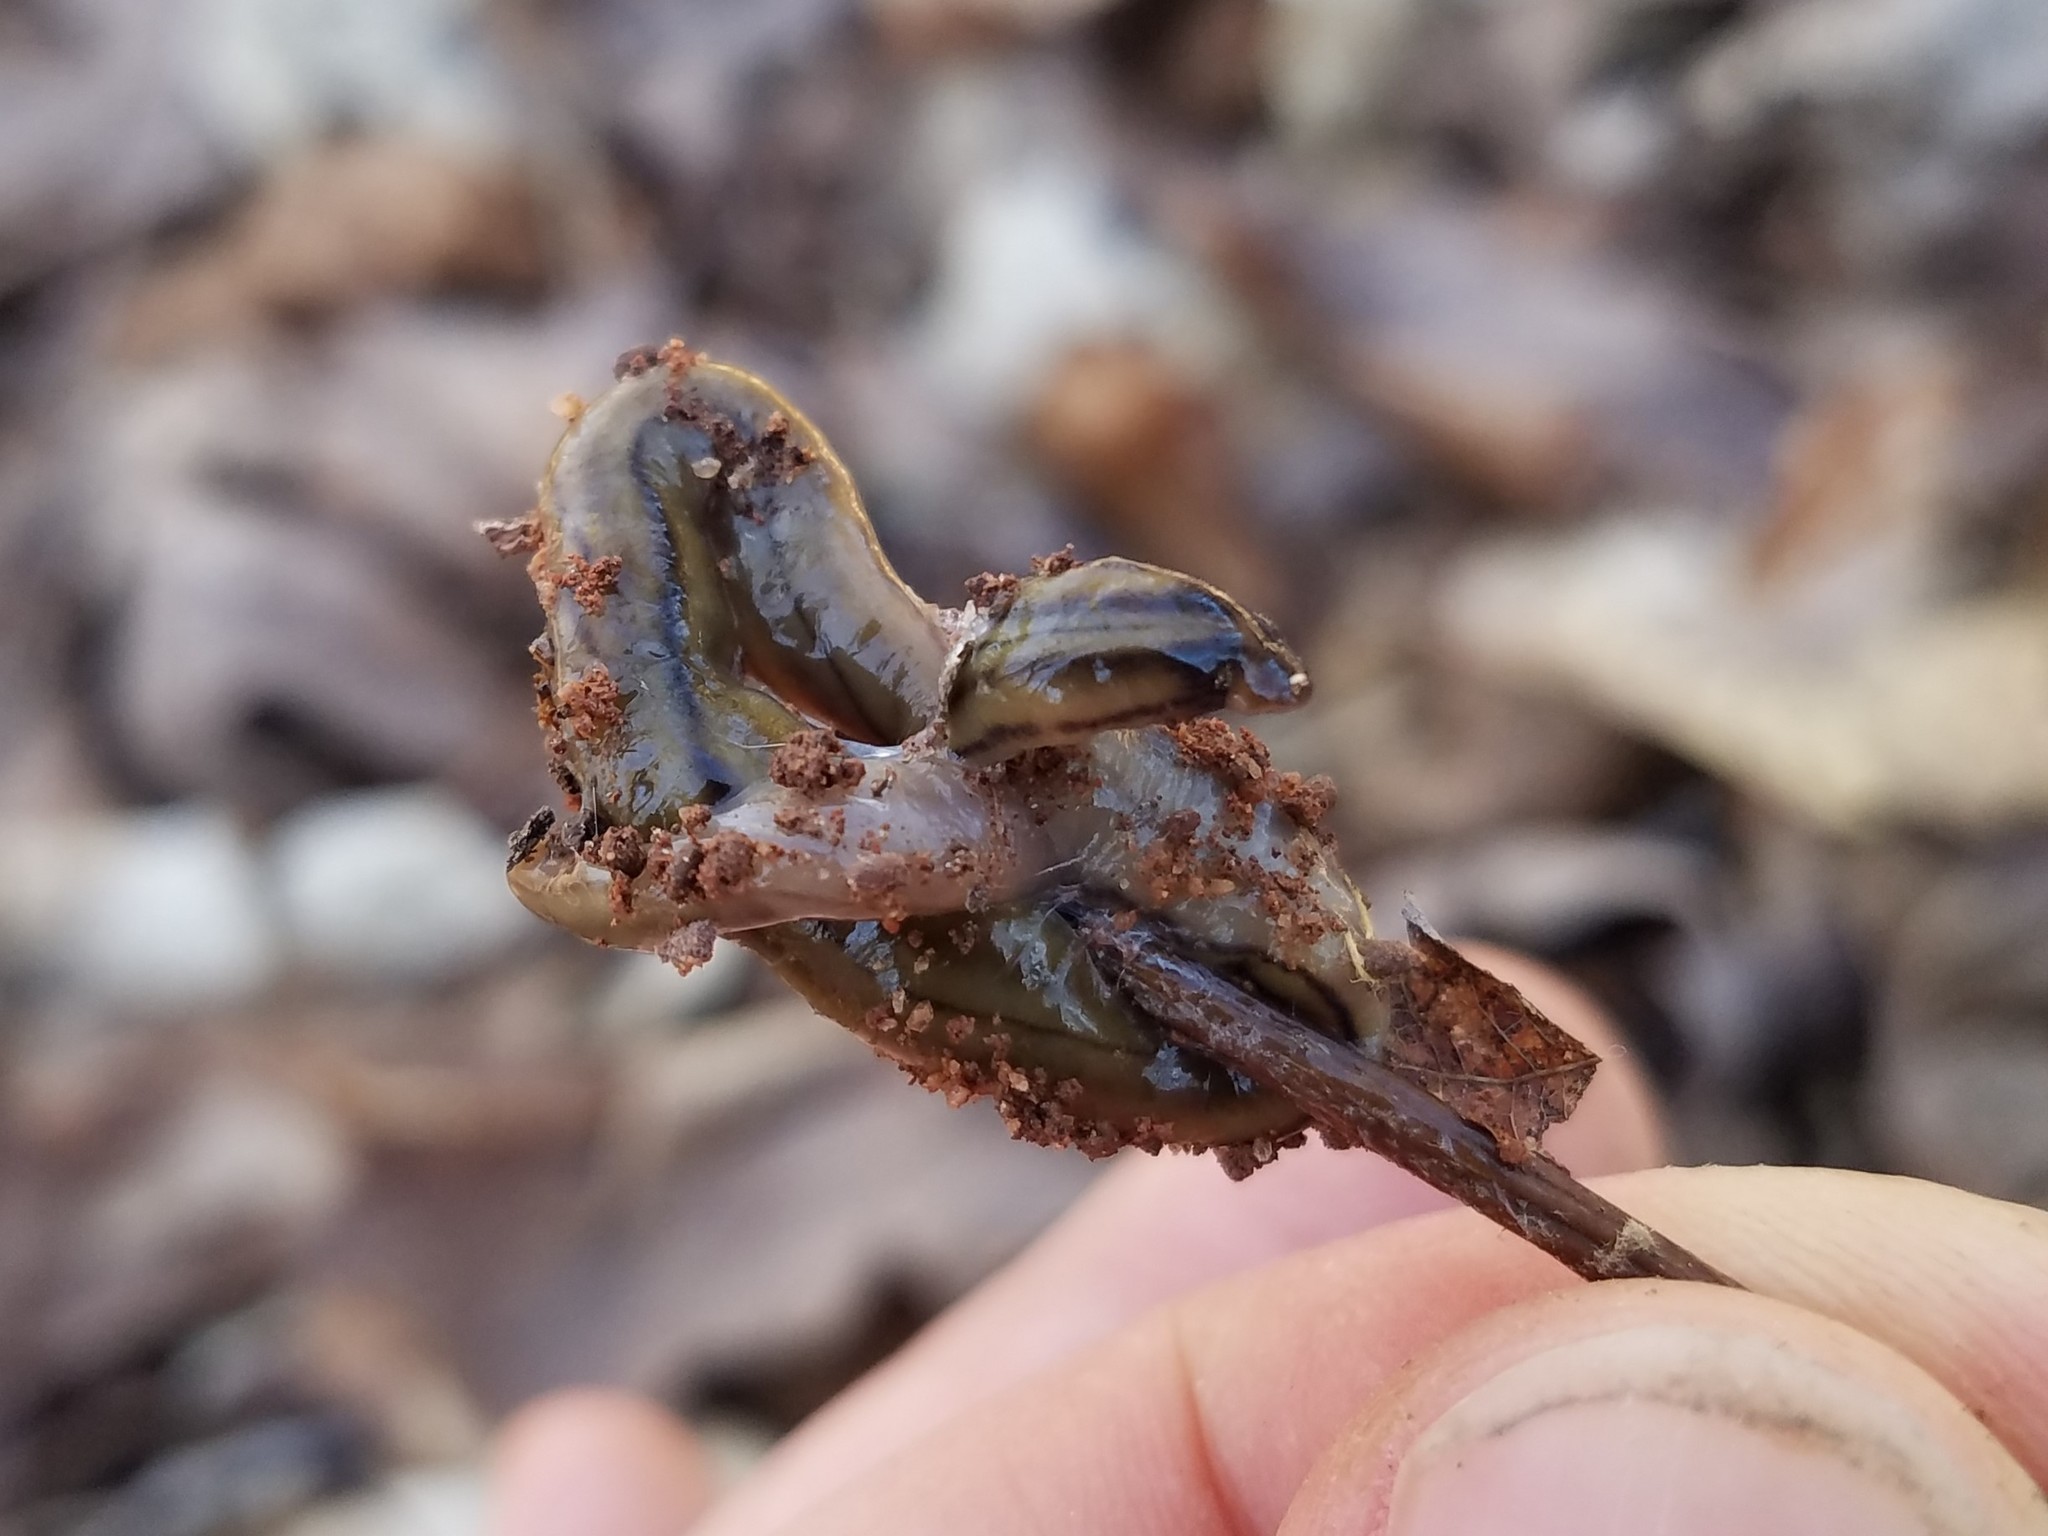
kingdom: Animalia
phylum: Platyhelminthes
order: Tricladida
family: Geoplanidae
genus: Bipalium
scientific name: Bipalium kewense
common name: Hammerhead flatworm
